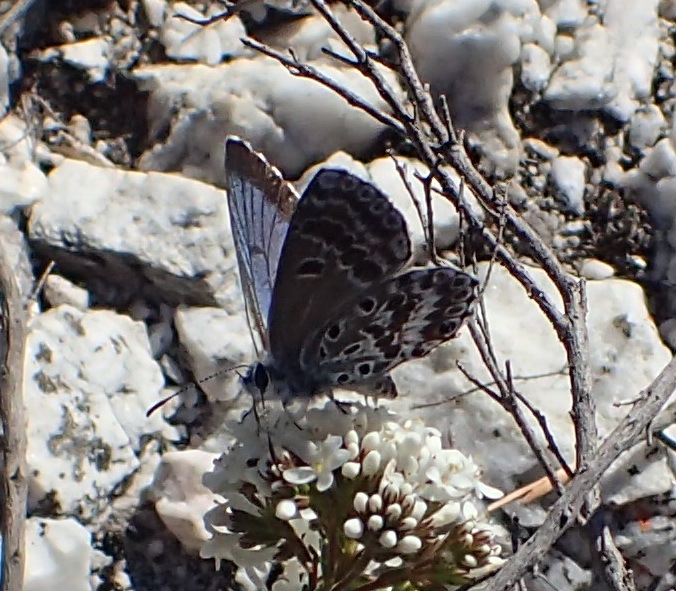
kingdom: Animalia
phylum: Arthropoda
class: Insecta
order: Lepidoptera
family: Lycaenidae
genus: Lepidochrysops
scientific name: Lepidochrysops braueri
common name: Brauer's blue
